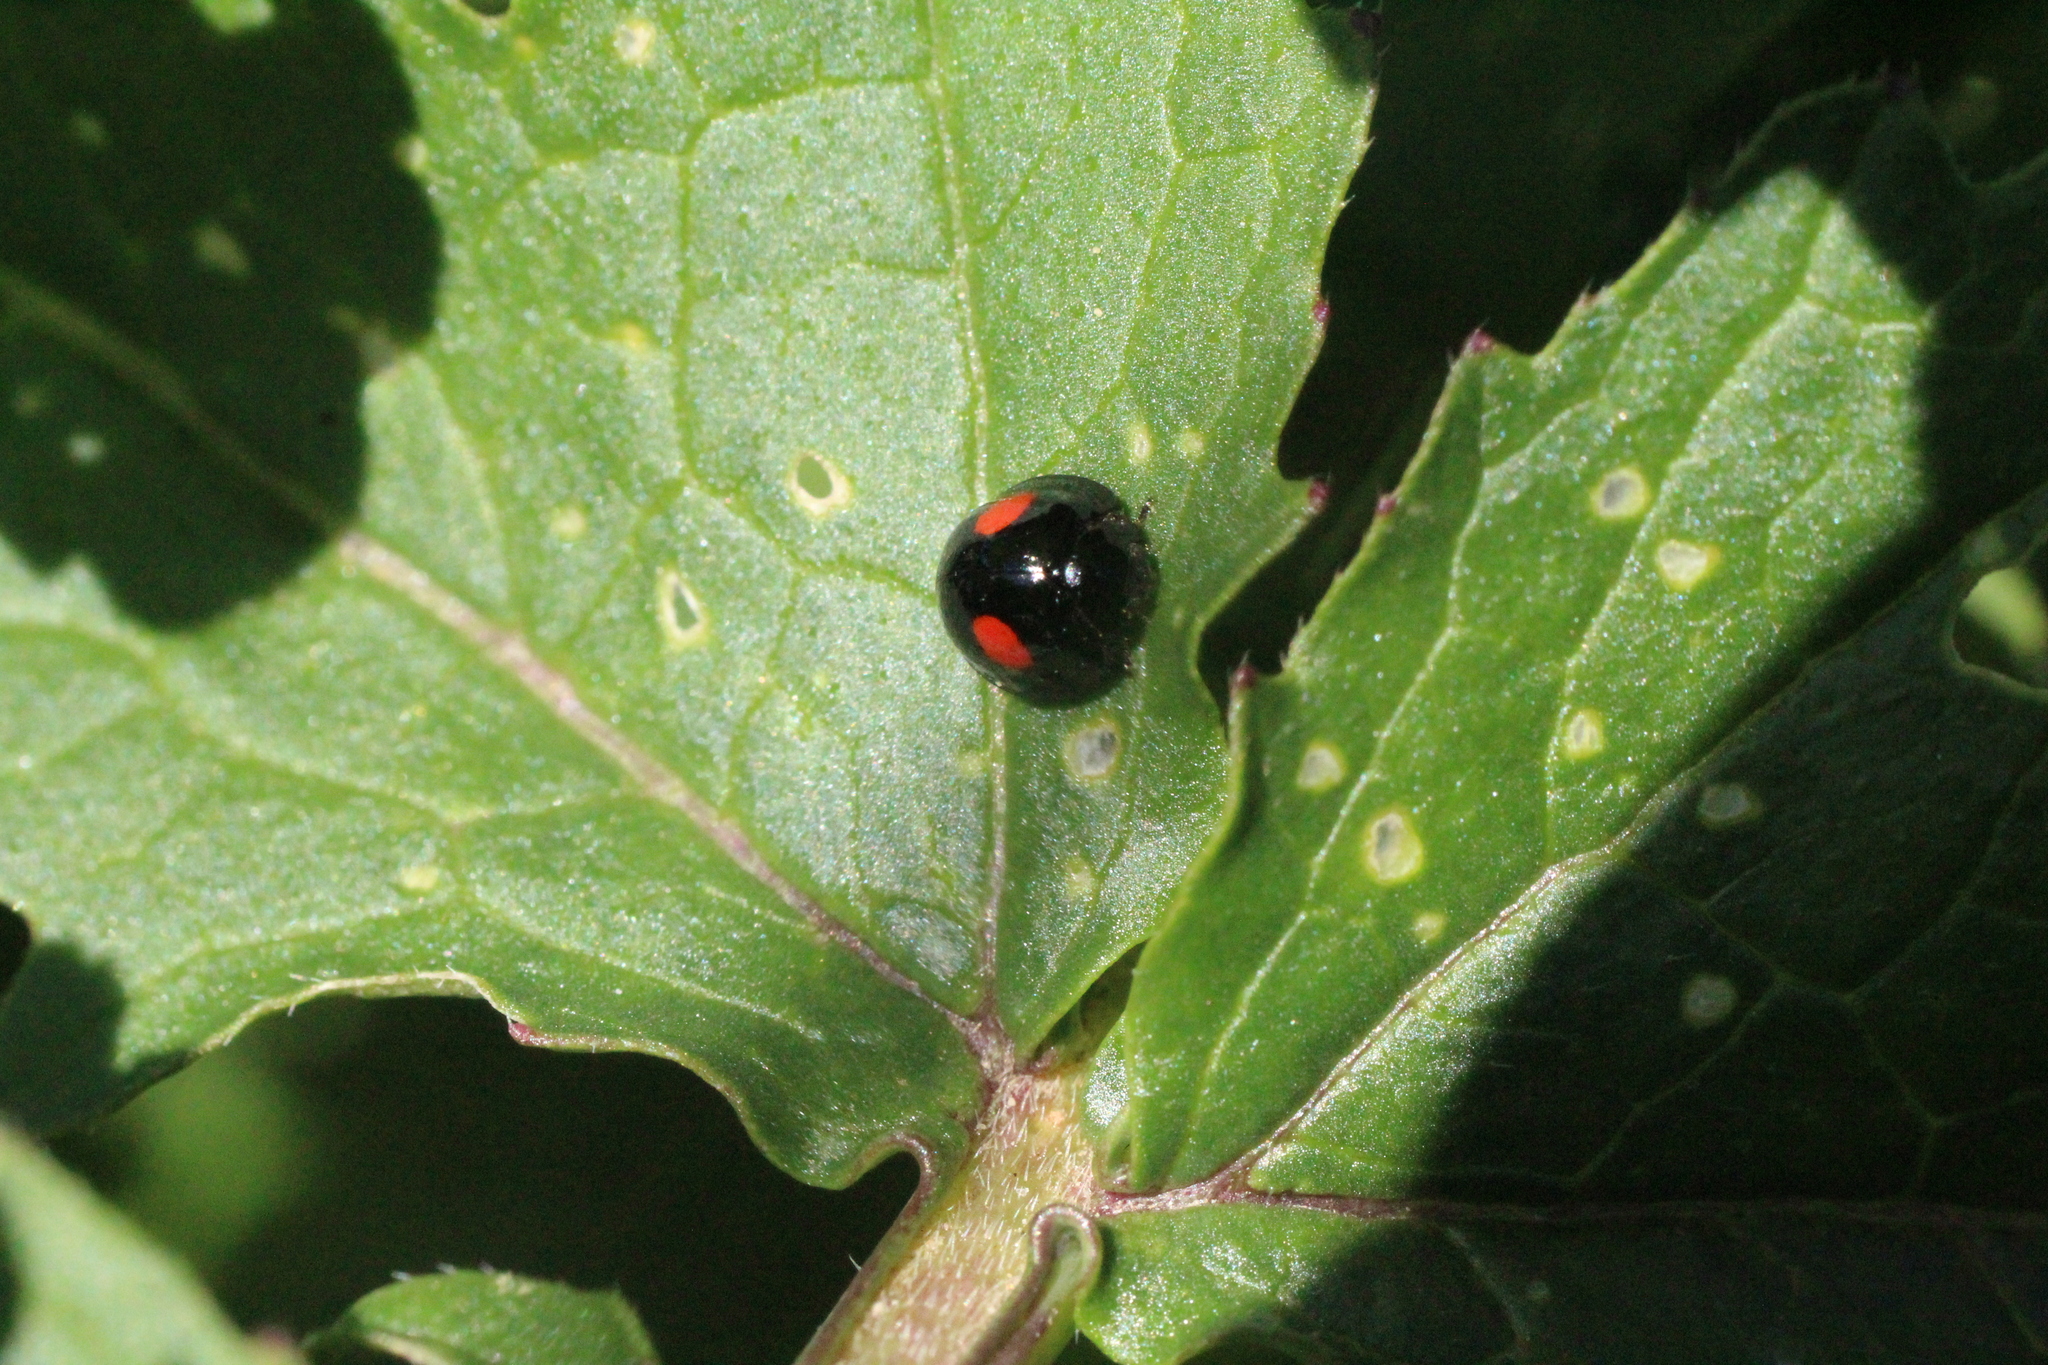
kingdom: Animalia
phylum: Arthropoda
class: Insecta
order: Coleoptera
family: Coccinellidae
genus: Chilocorus
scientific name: Chilocorus renipustulatus
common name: Kidney-spot ladybird
